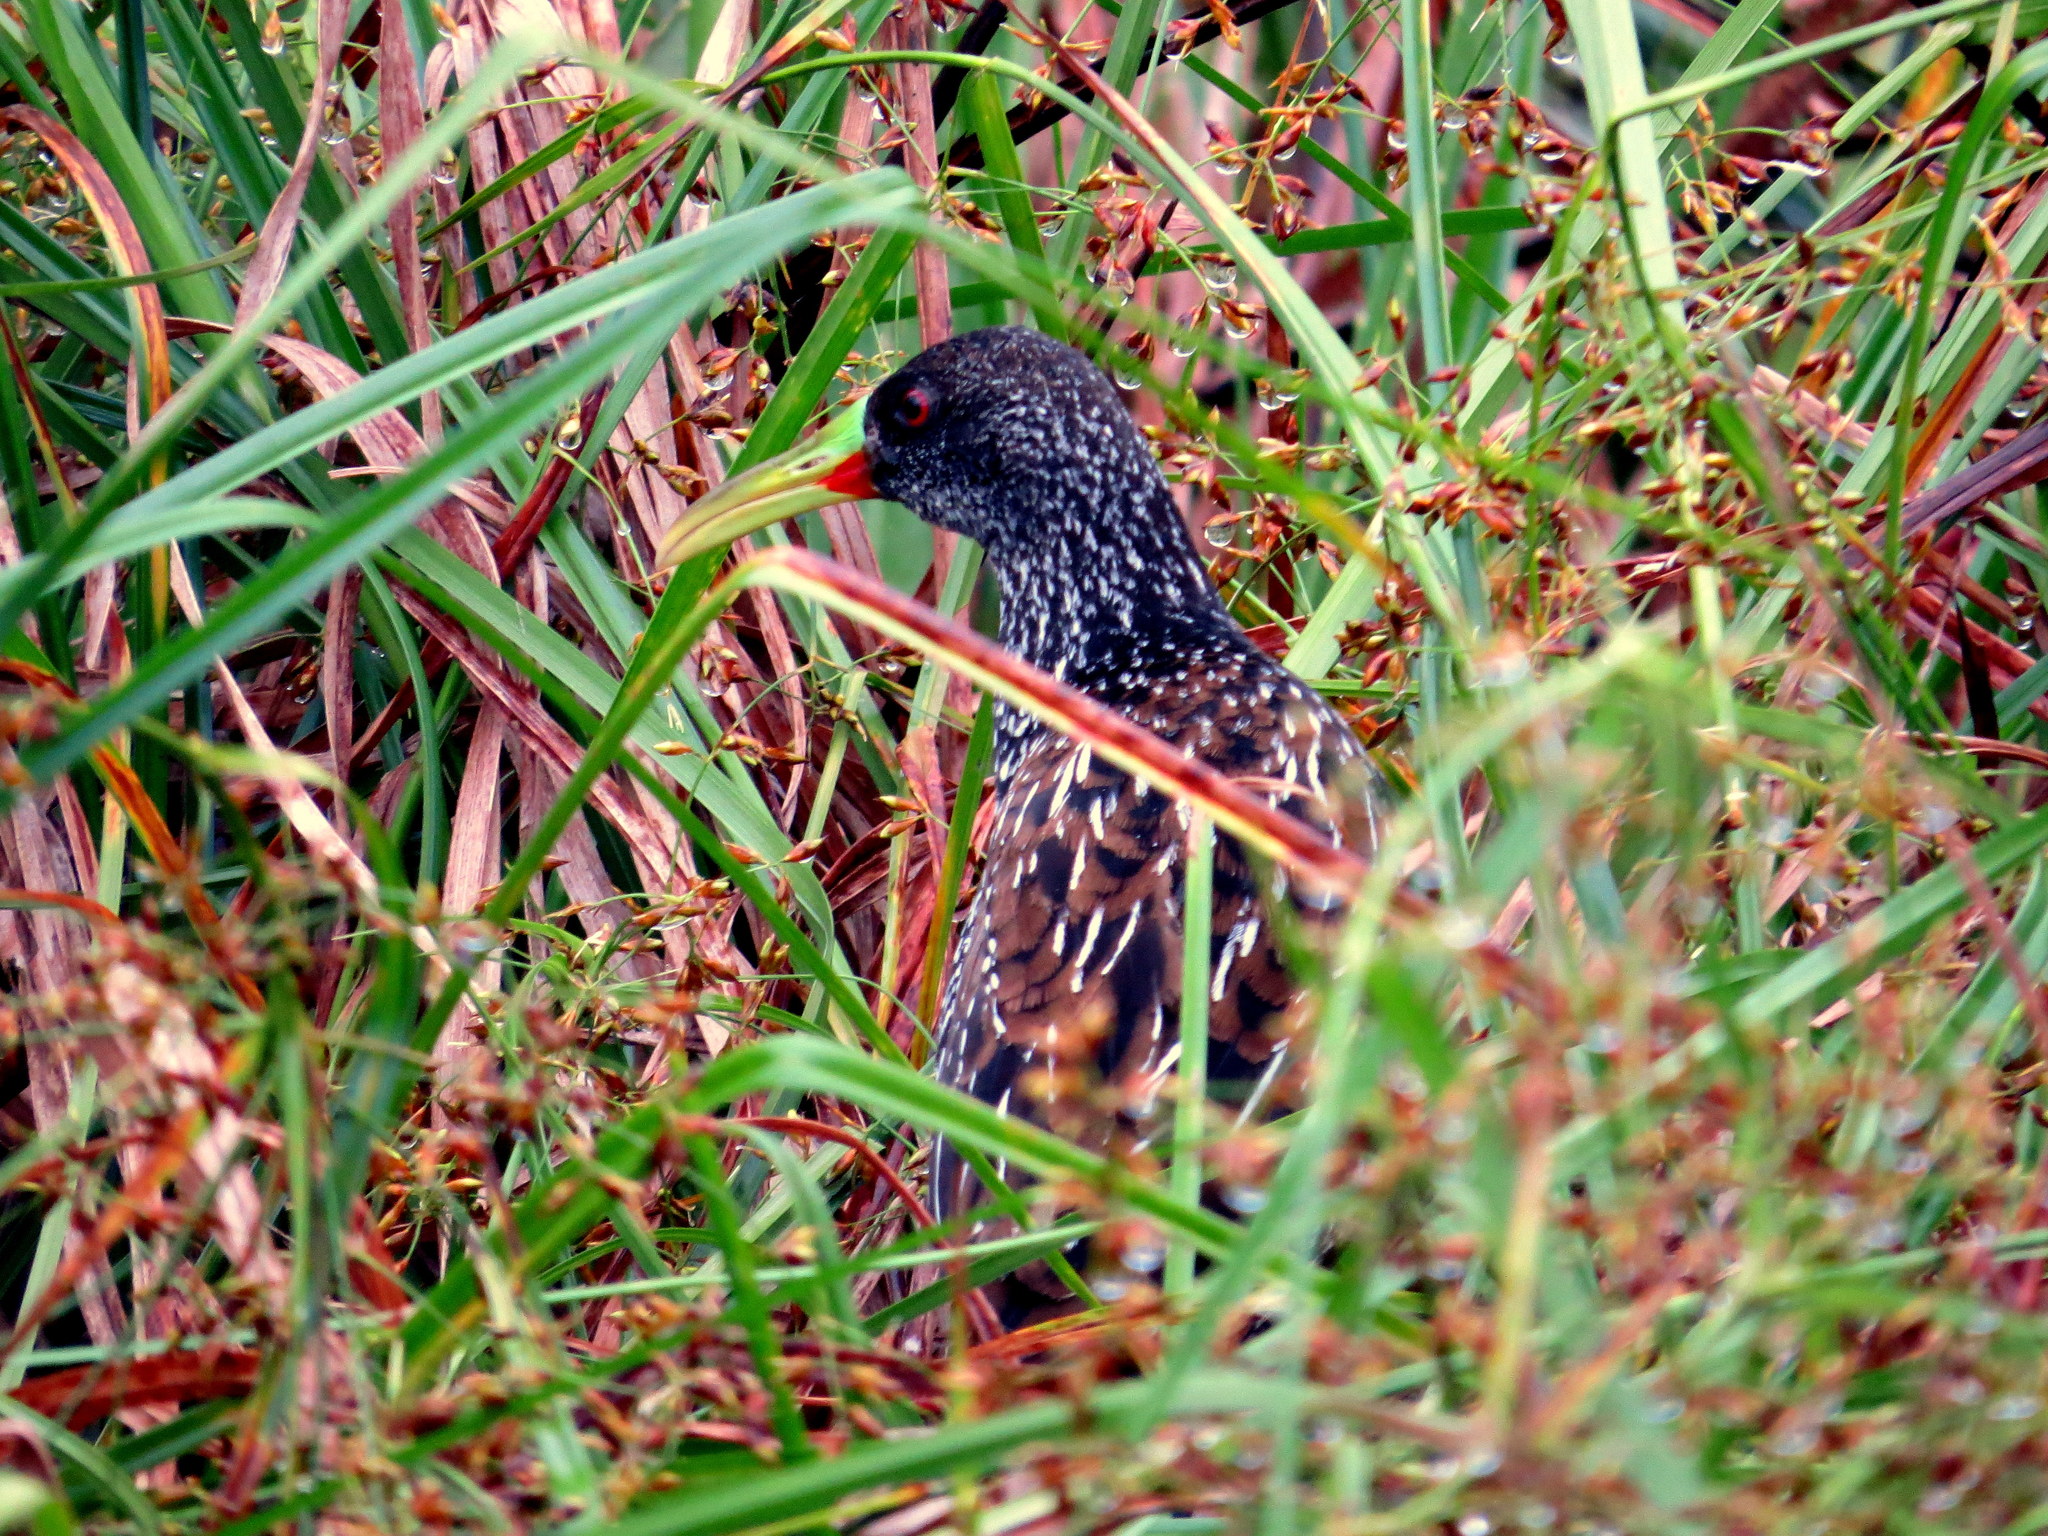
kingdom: Animalia
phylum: Chordata
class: Aves
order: Gruiformes
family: Rallidae
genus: Pardirallus
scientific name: Pardirallus maculatus
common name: Spotted rail
